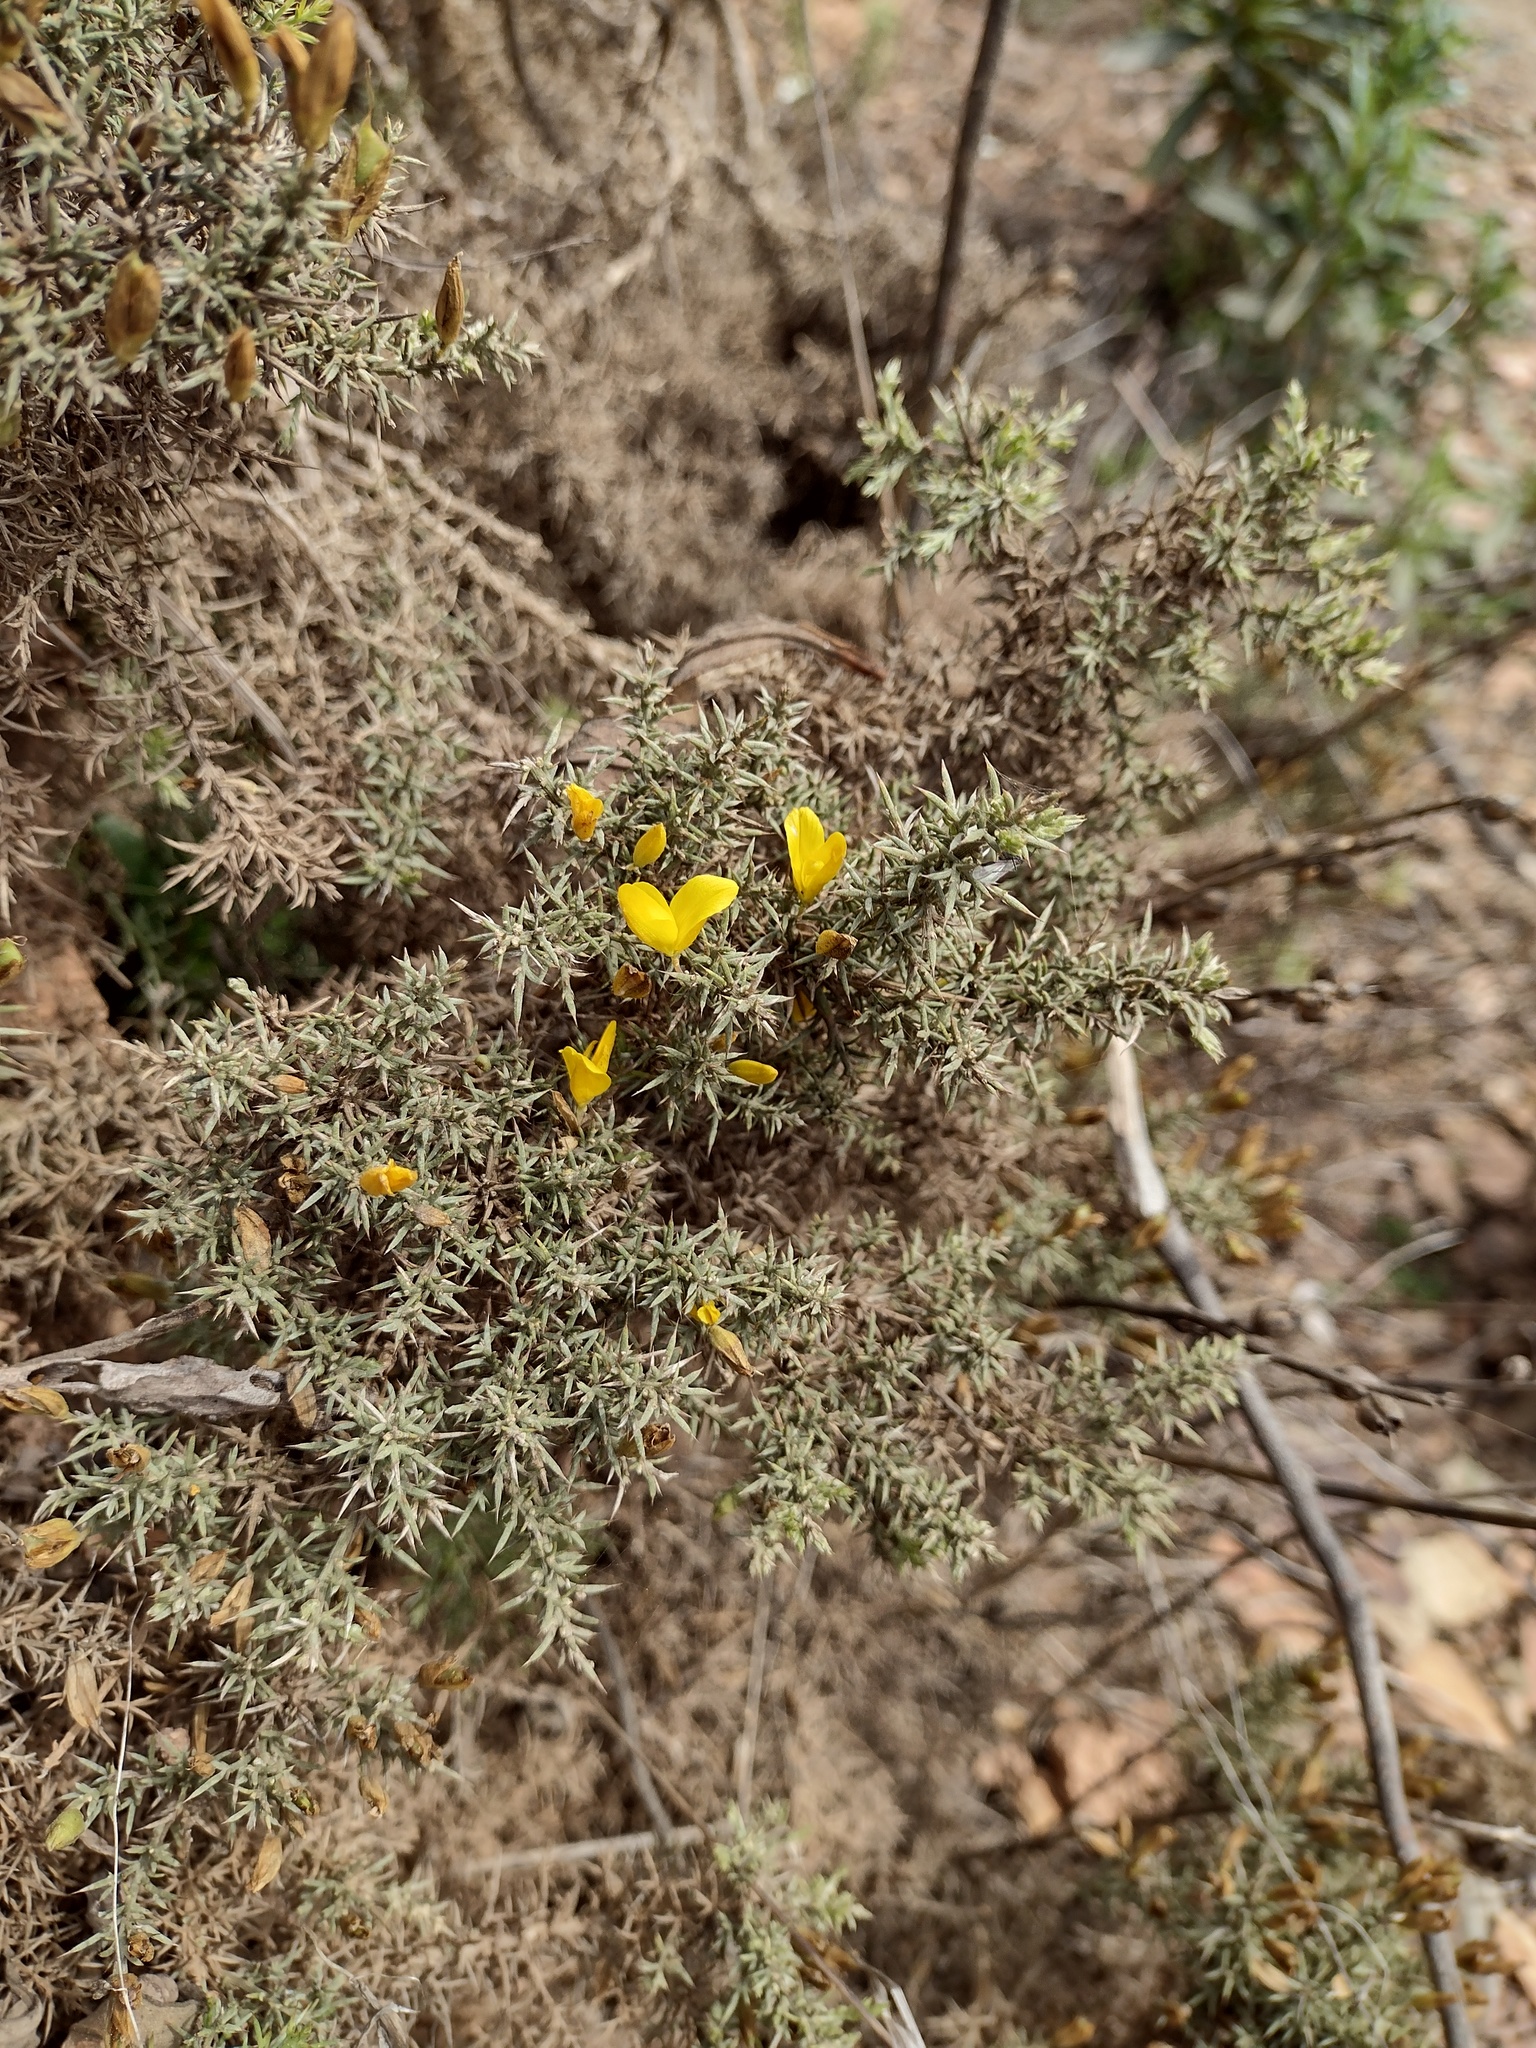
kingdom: Plantae
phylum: Tracheophyta
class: Magnoliopsida
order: Fabales
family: Fabaceae
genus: Ulex
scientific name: Ulex argenteus
